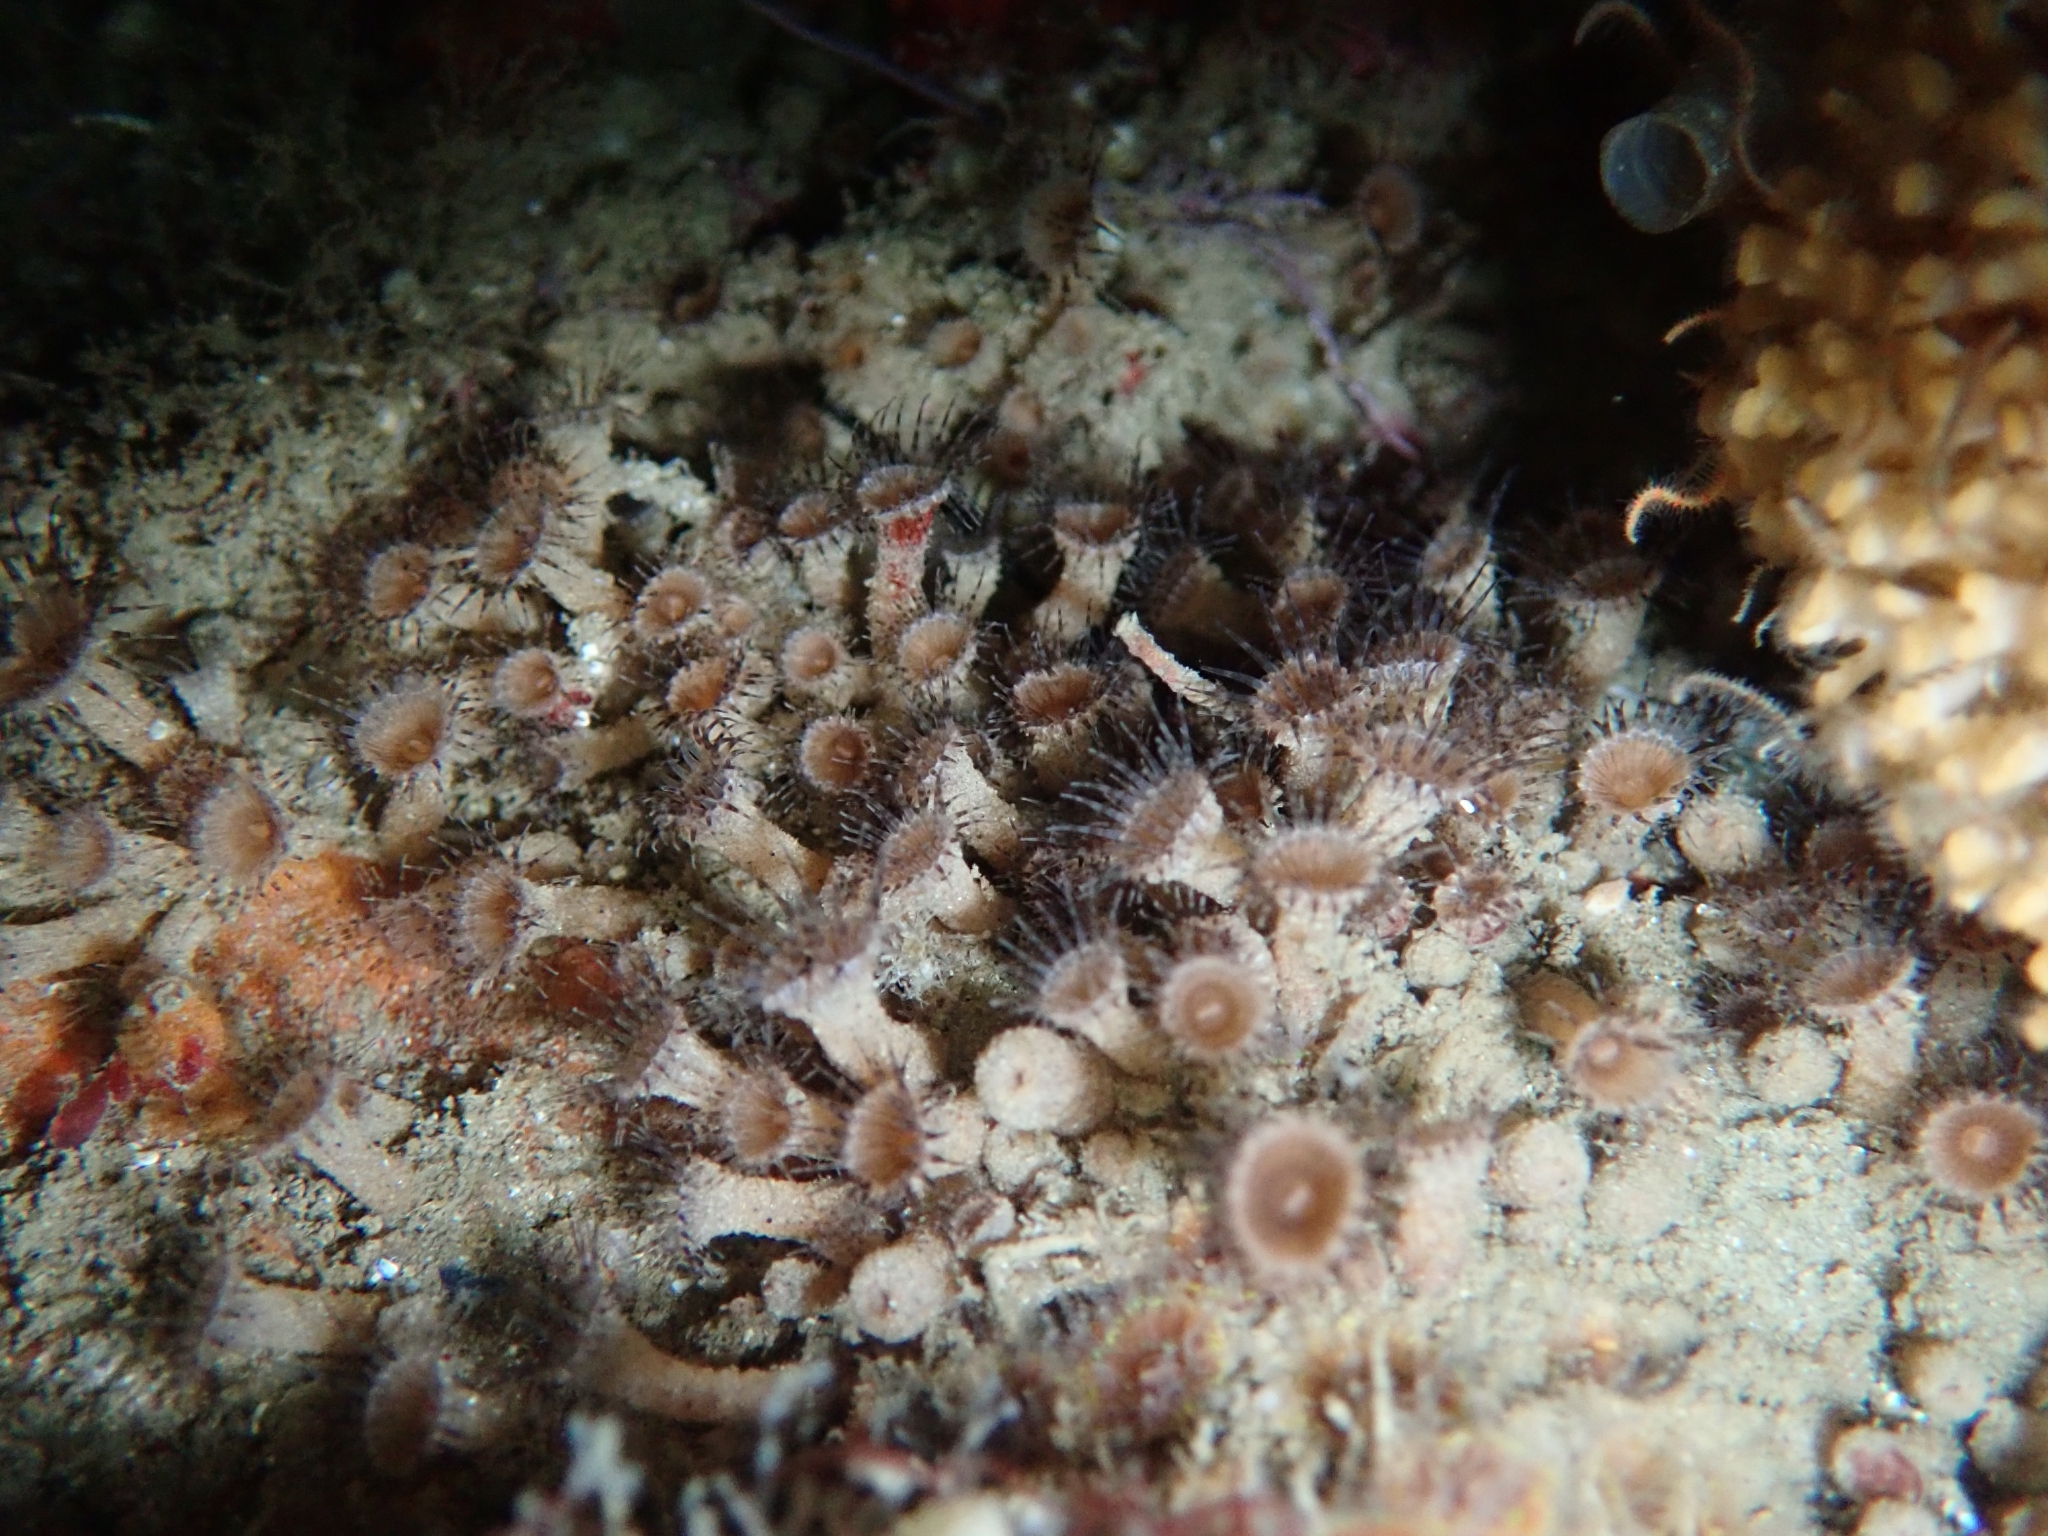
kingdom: Animalia
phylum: Cnidaria
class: Anthozoa
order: Zoantharia
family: Epizoanthidae
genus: Epizoanthus
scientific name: Epizoanthus leptoderma
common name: Elongate zoanthid
